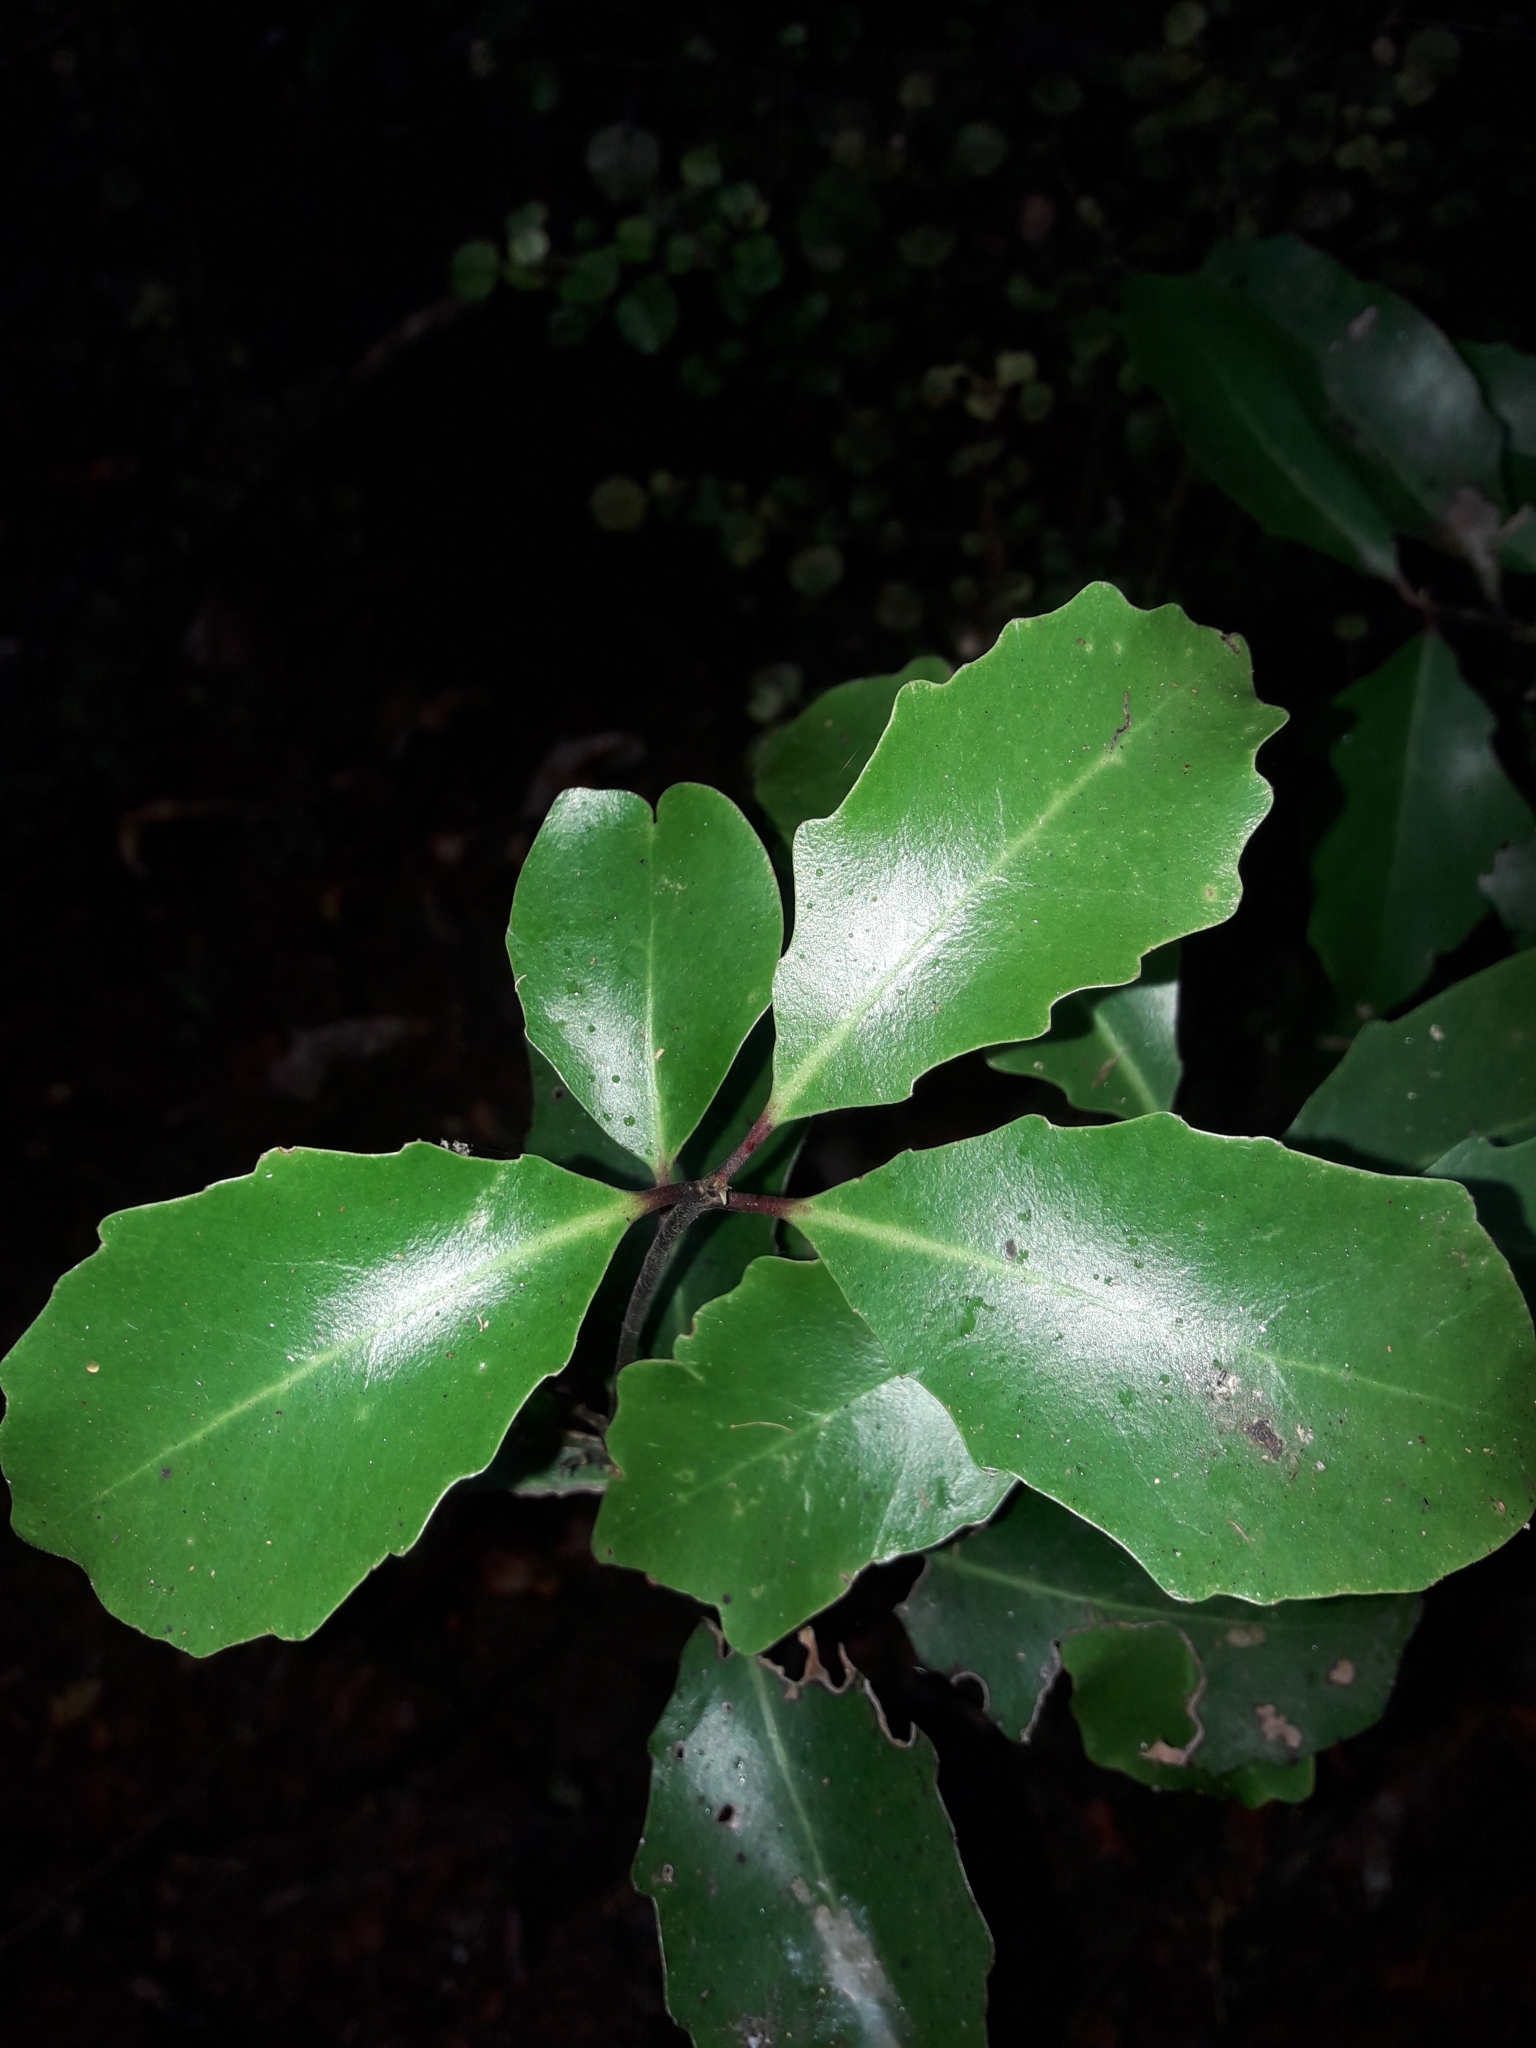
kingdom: Plantae
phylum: Tracheophyta
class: Magnoliopsida
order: Asterales
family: Alseuosmiaceae
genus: Alseuosmia
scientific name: Alseuosmia quercifolia
